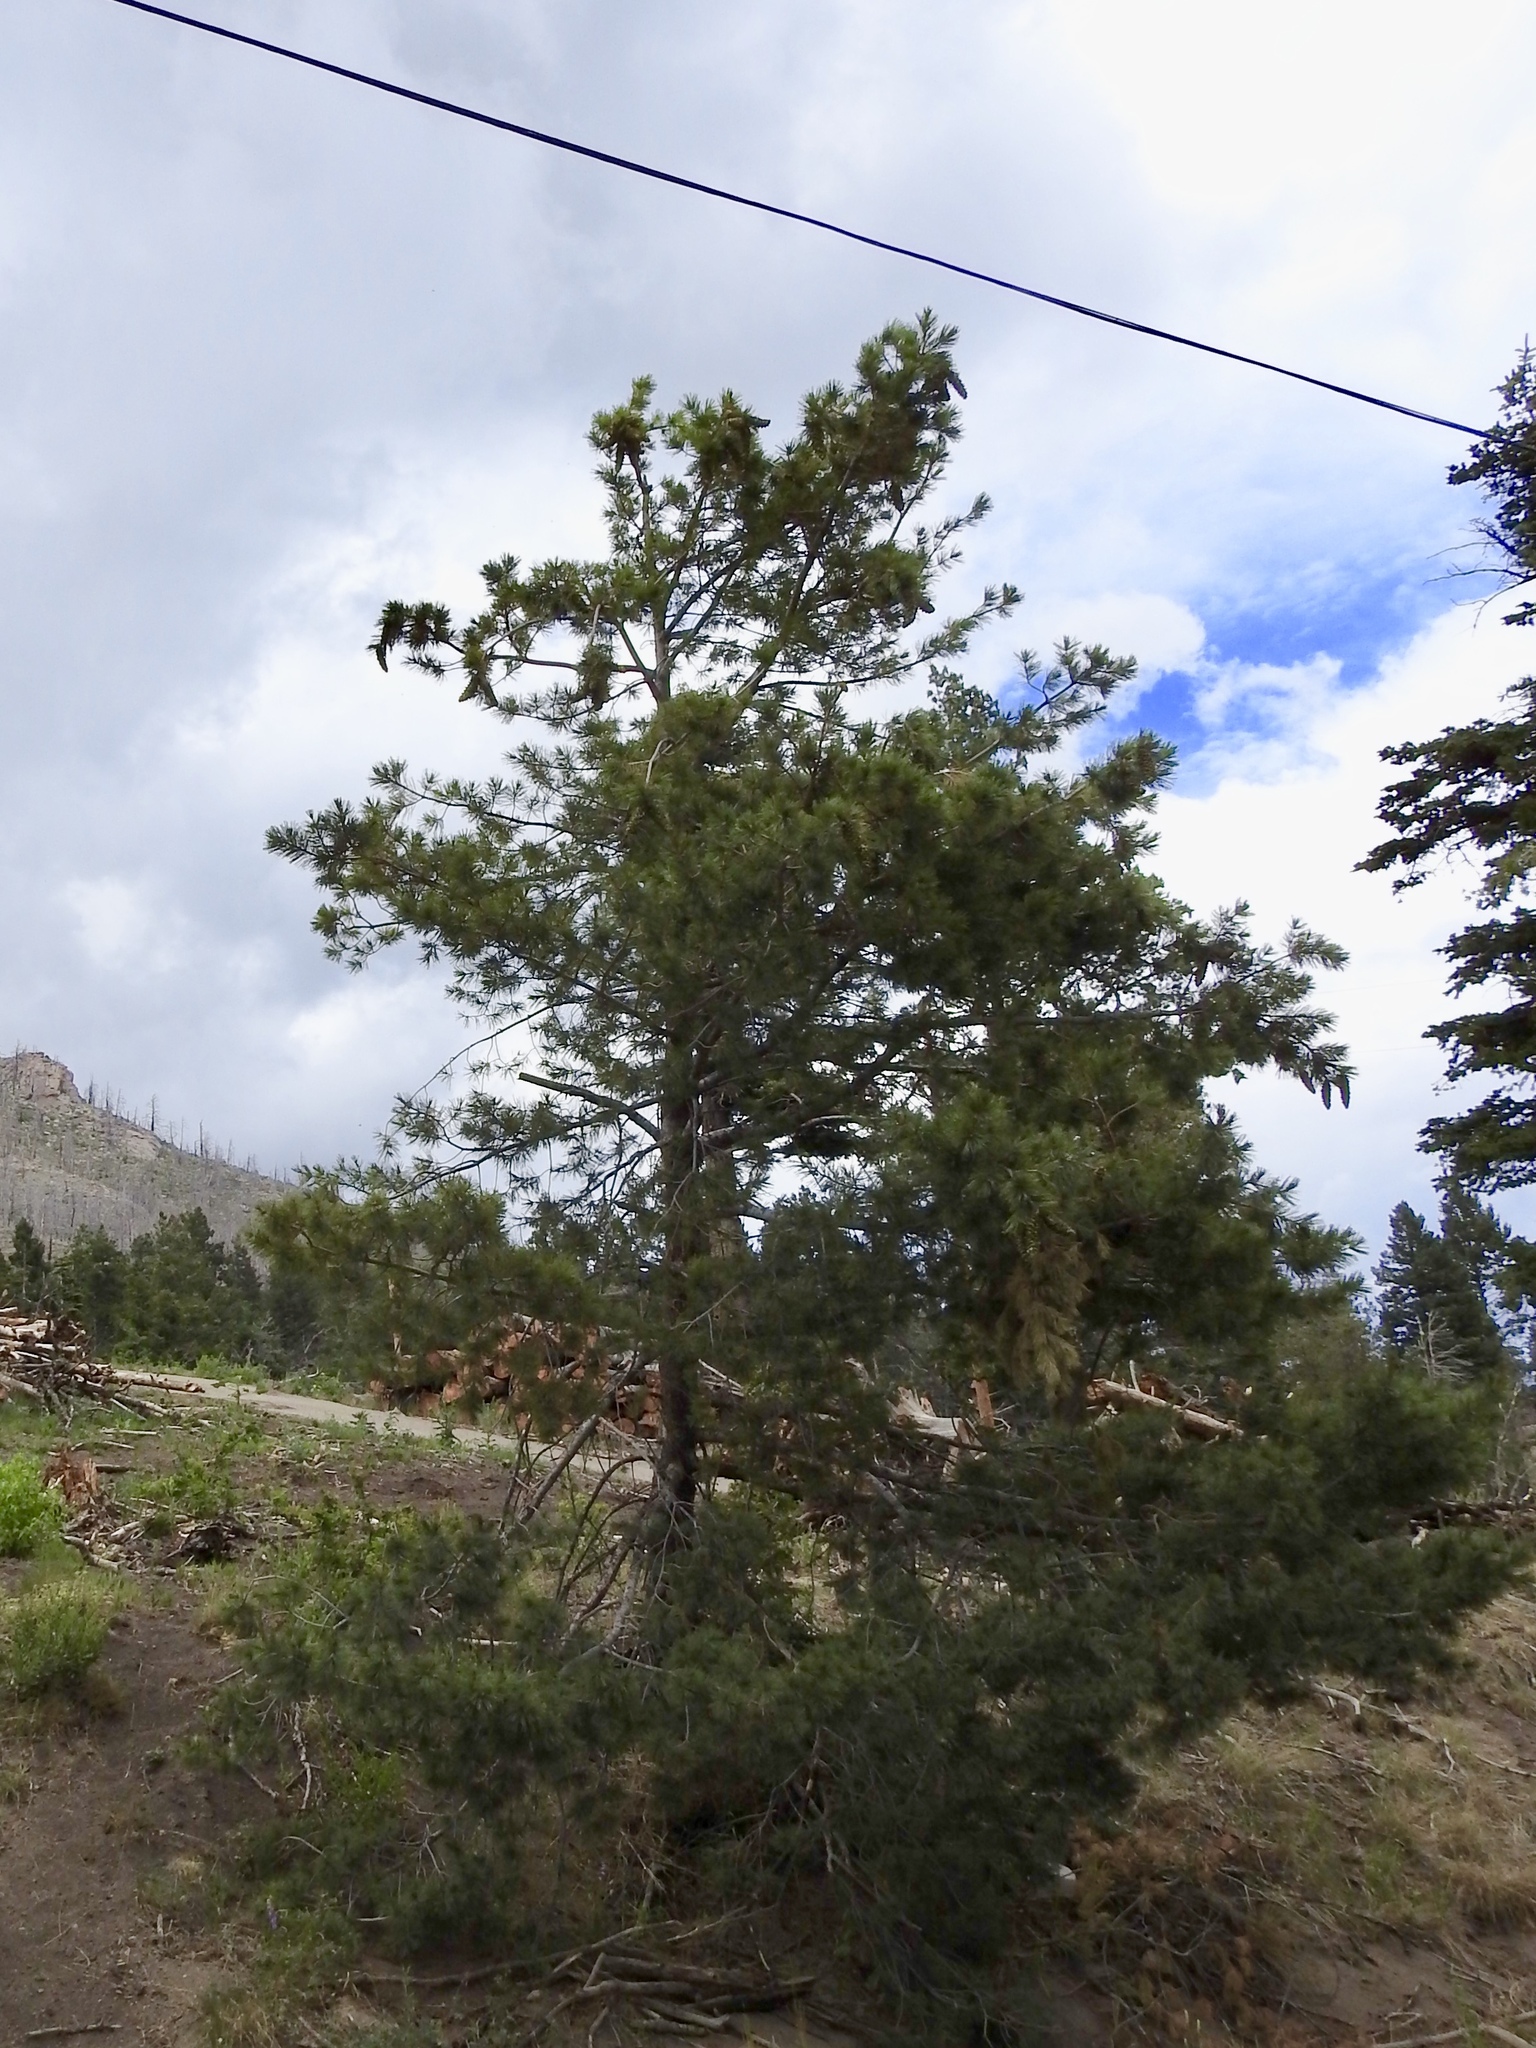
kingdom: Plantae
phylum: Tracheophyta
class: Pinopsida
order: Pinales
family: Pinaceae
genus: Pinus
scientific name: Pinus strobiformis
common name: Southwestern white pine
